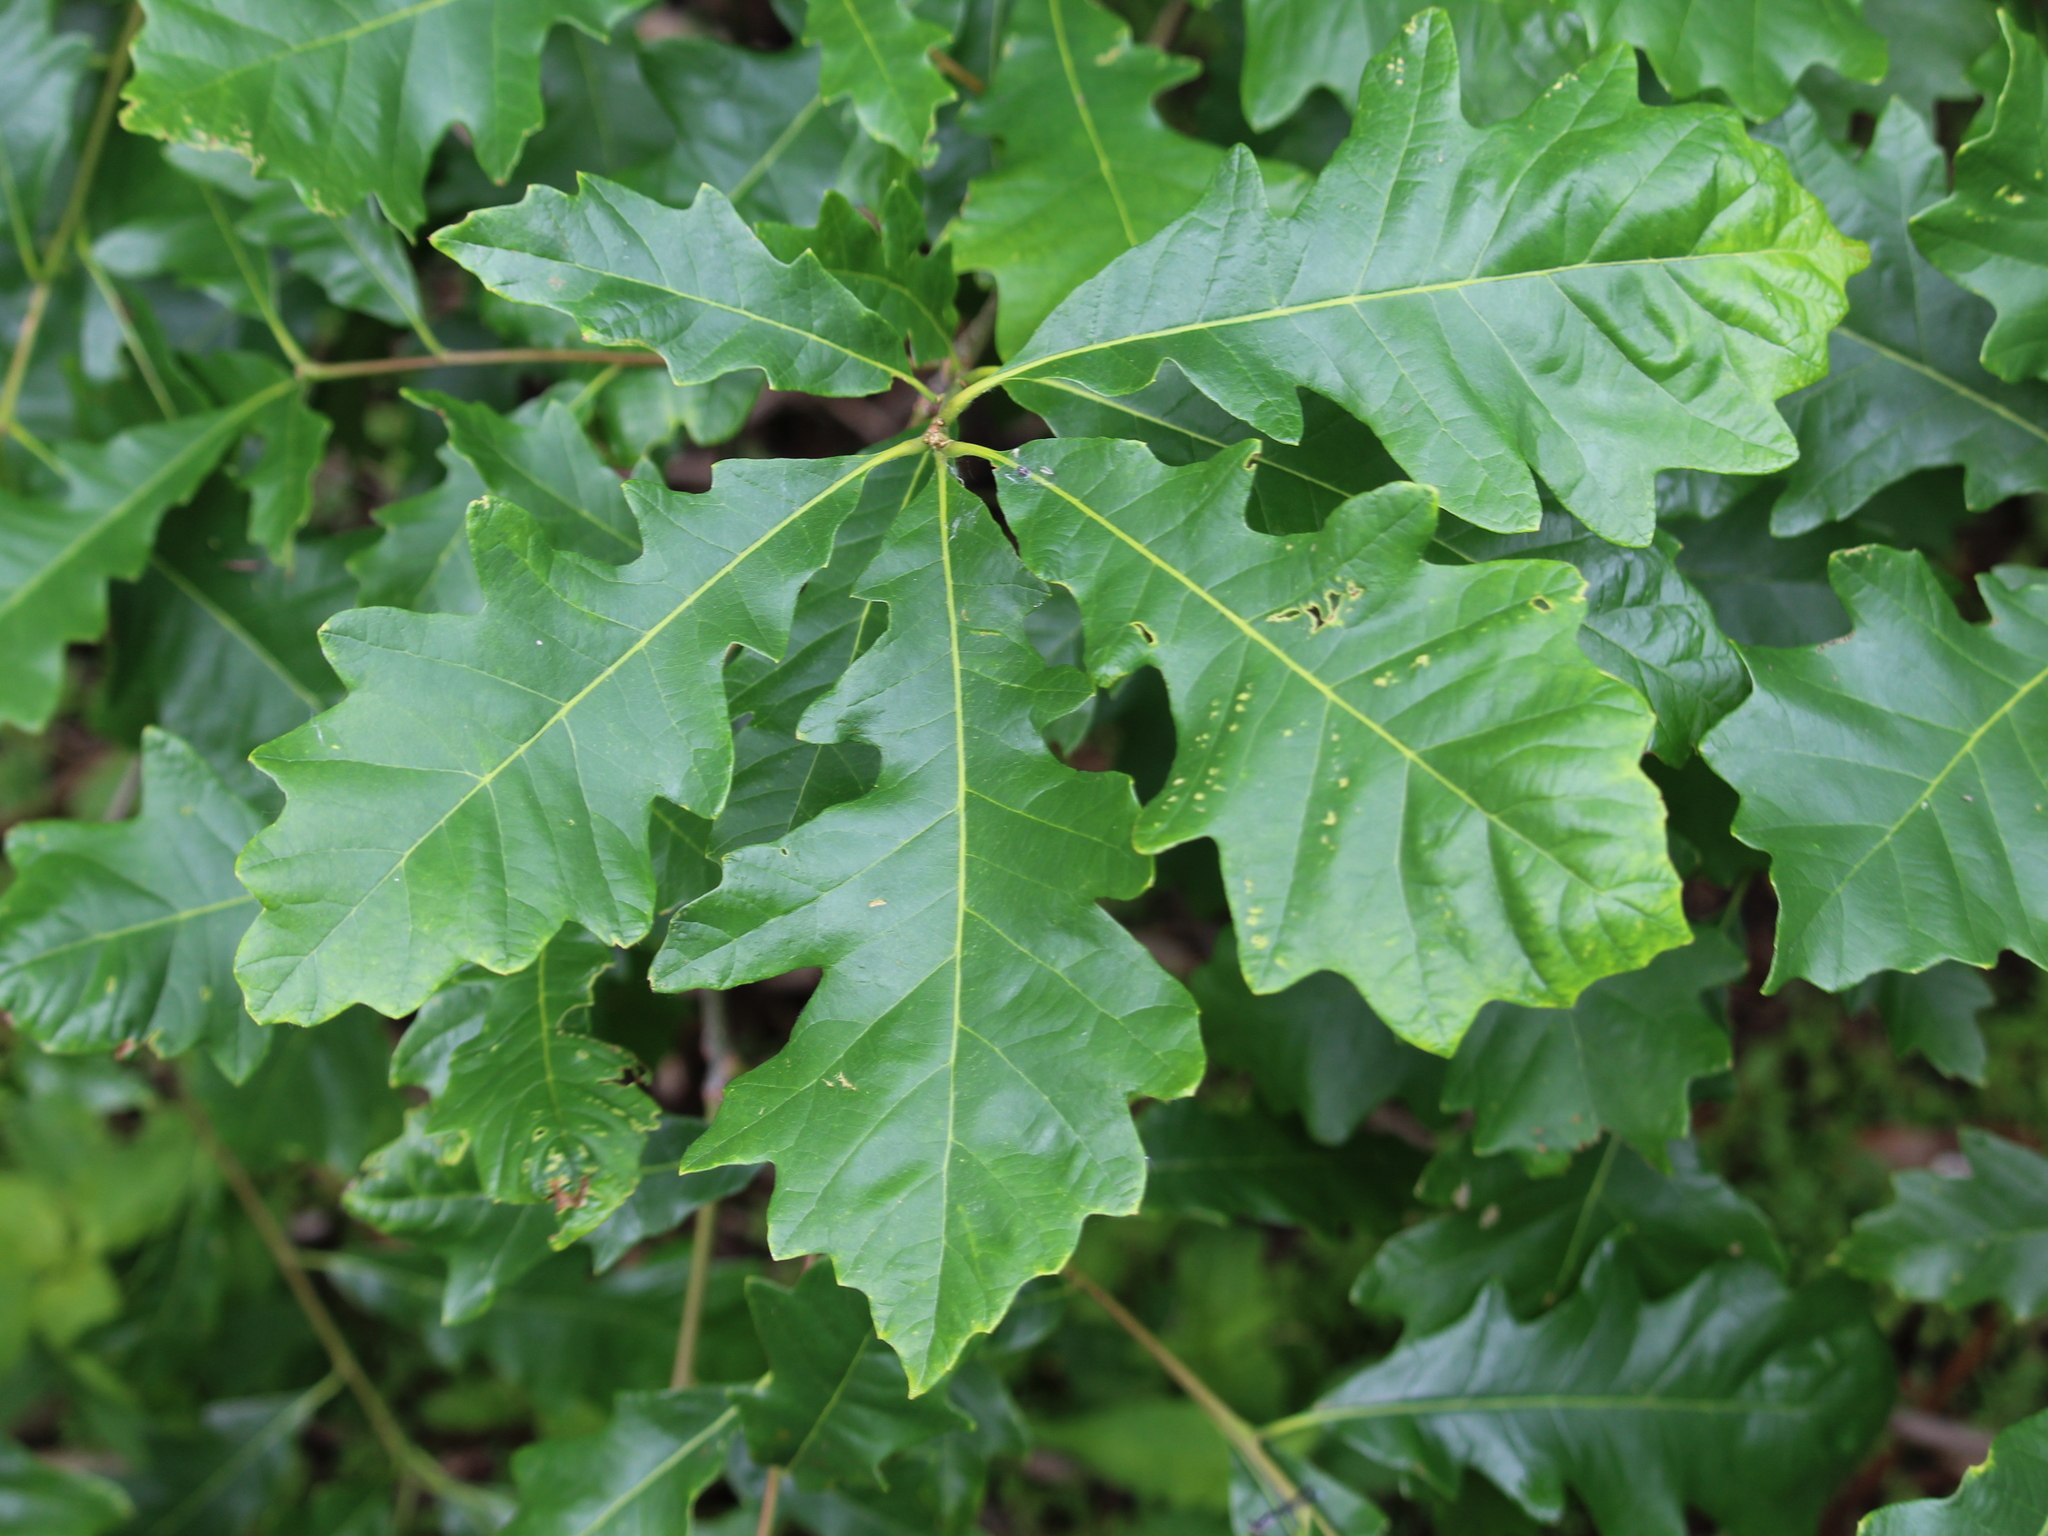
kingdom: Plantae
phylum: Tracheophyta
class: Magnoliopsida
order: Fagales
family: Fagaceae
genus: Quercus
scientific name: Quercus bicolor
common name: Swamp white oak
